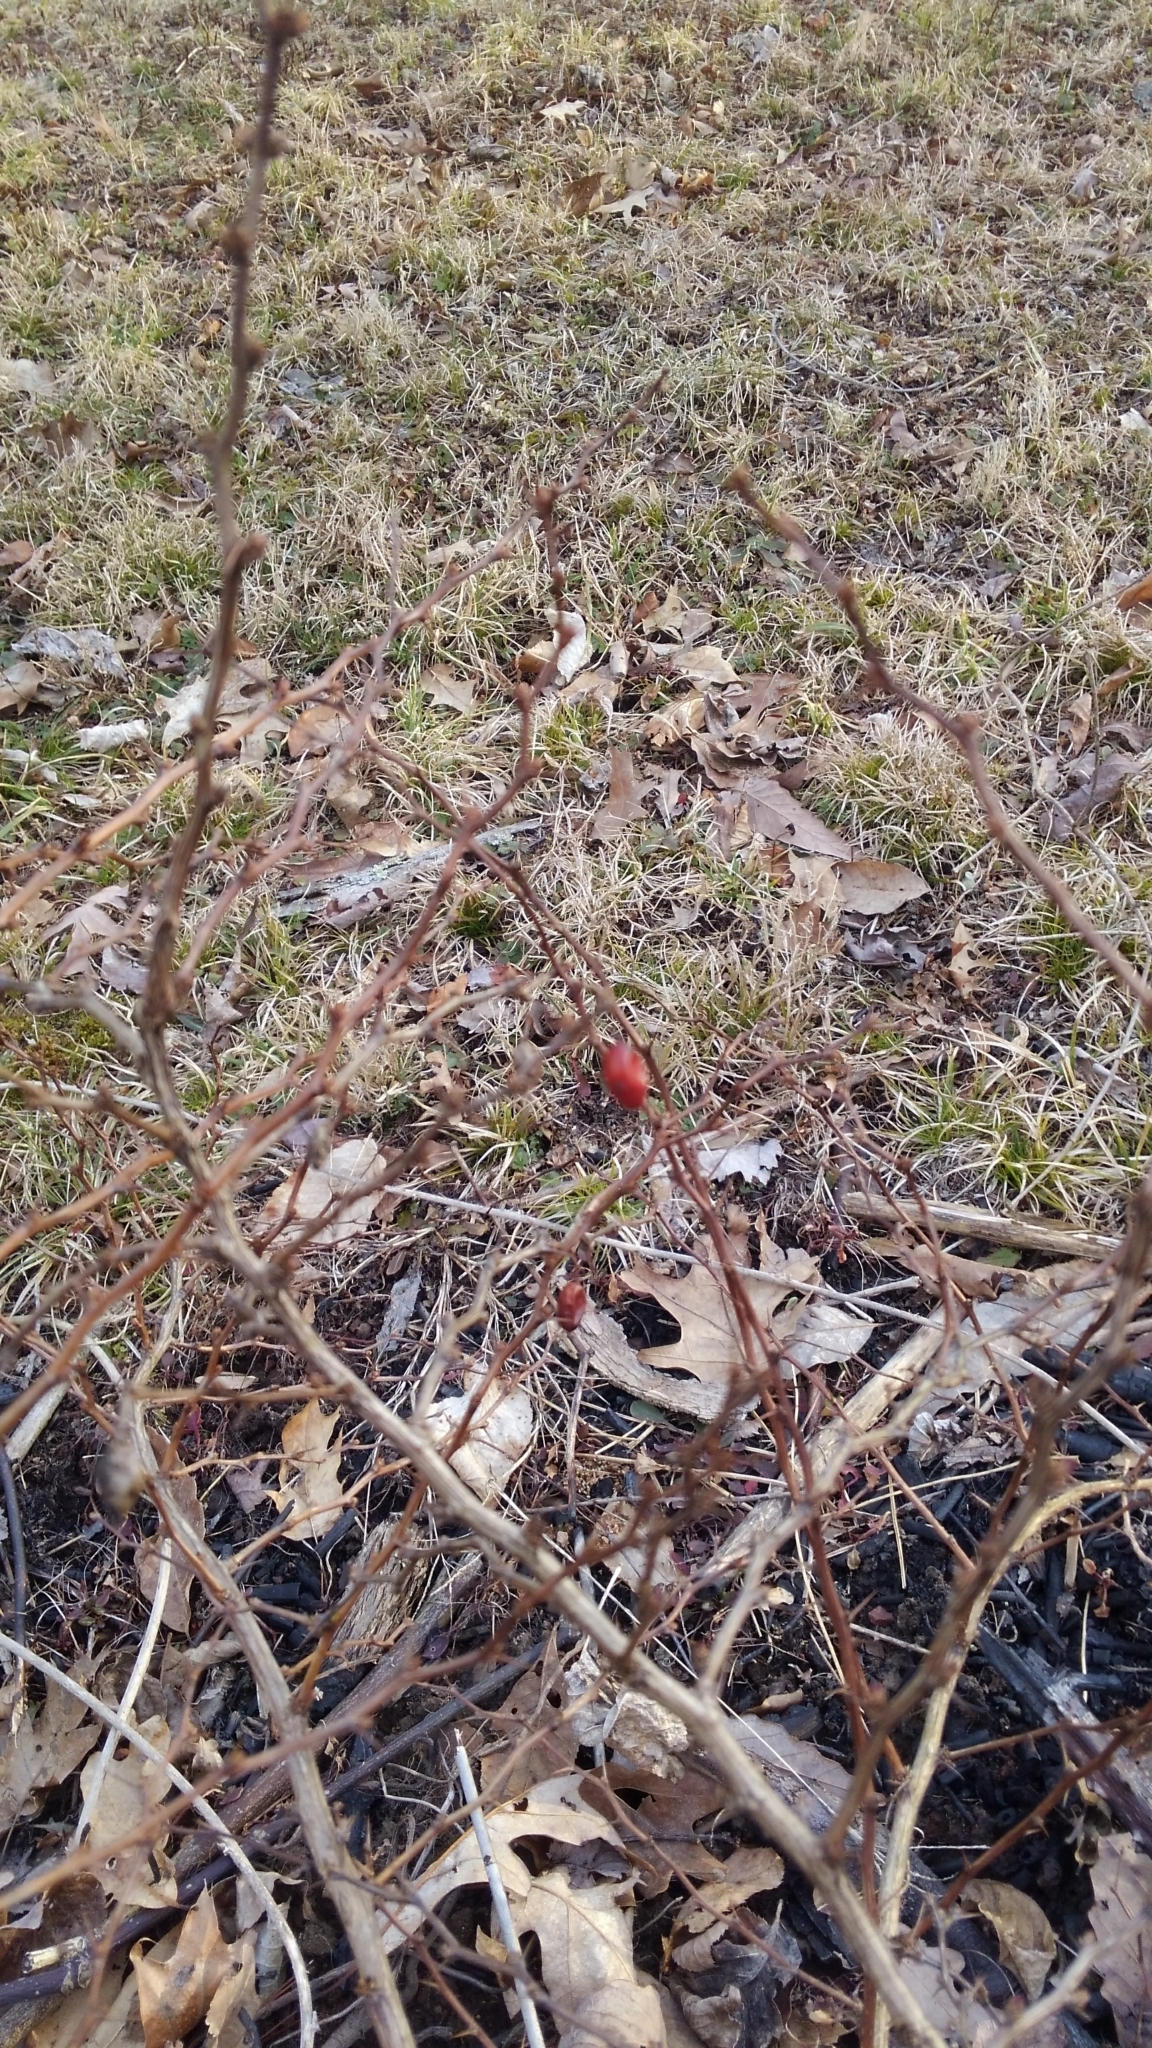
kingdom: Plantae
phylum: Tracheophyta
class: Magnoliopsida
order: Ranunculales
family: Berberidaceae
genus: Berberis
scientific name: Berberis thunbergii
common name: Japanese barberry
